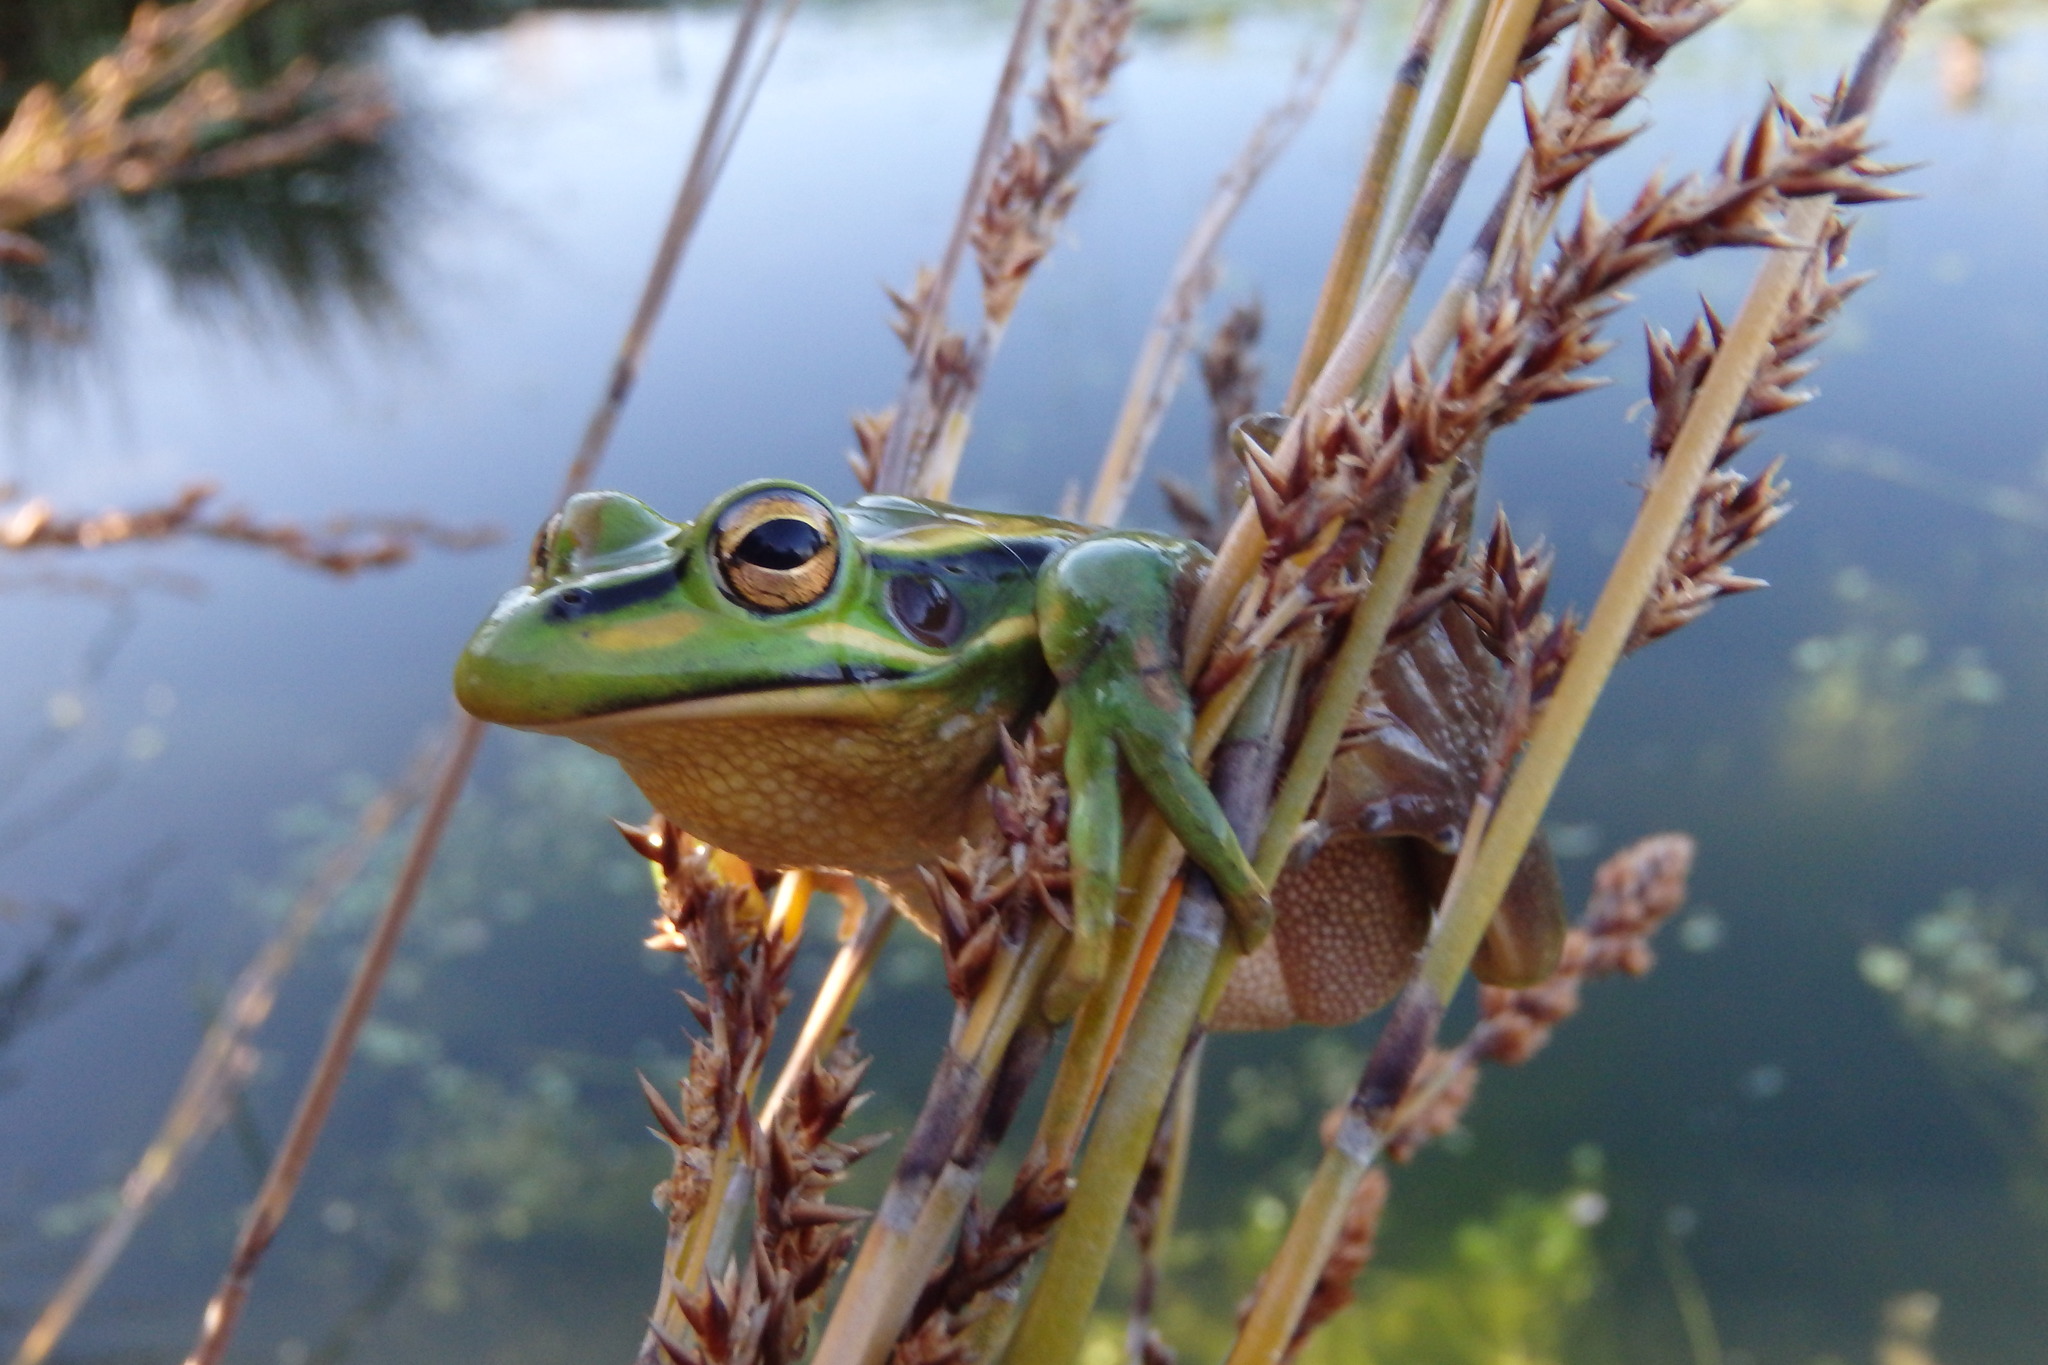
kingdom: Animalia
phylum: Chordata
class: Amphibia
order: Anura
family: Pelodryadidae
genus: Ranoidea
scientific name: Ranoidea aurea
